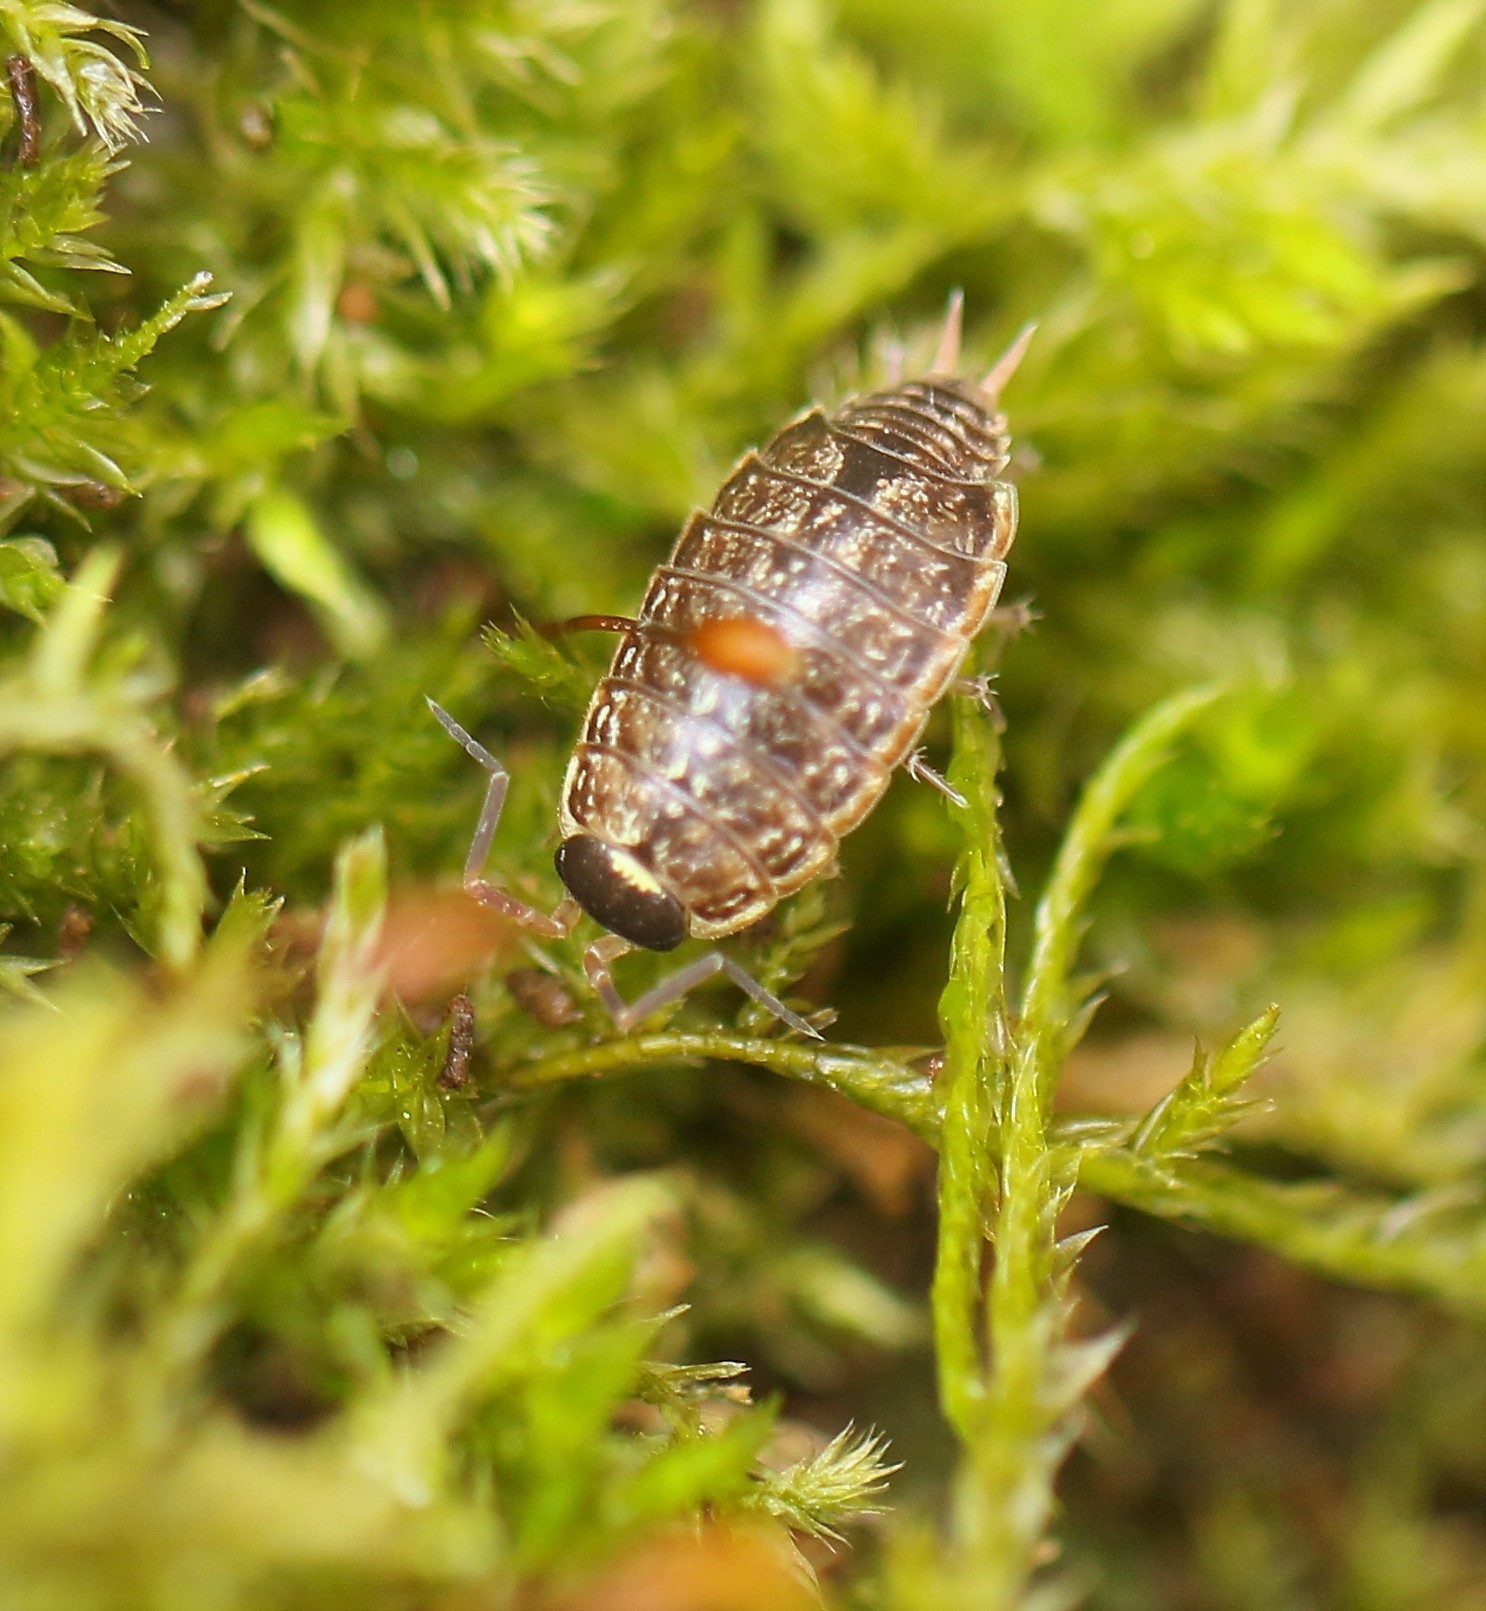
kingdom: Animalia
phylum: Arthropoda
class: Malacostraca
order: Isopoda
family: Philosciidae
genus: Philoscia
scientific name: Philoscia muscorum
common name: Common striped woodlouse
